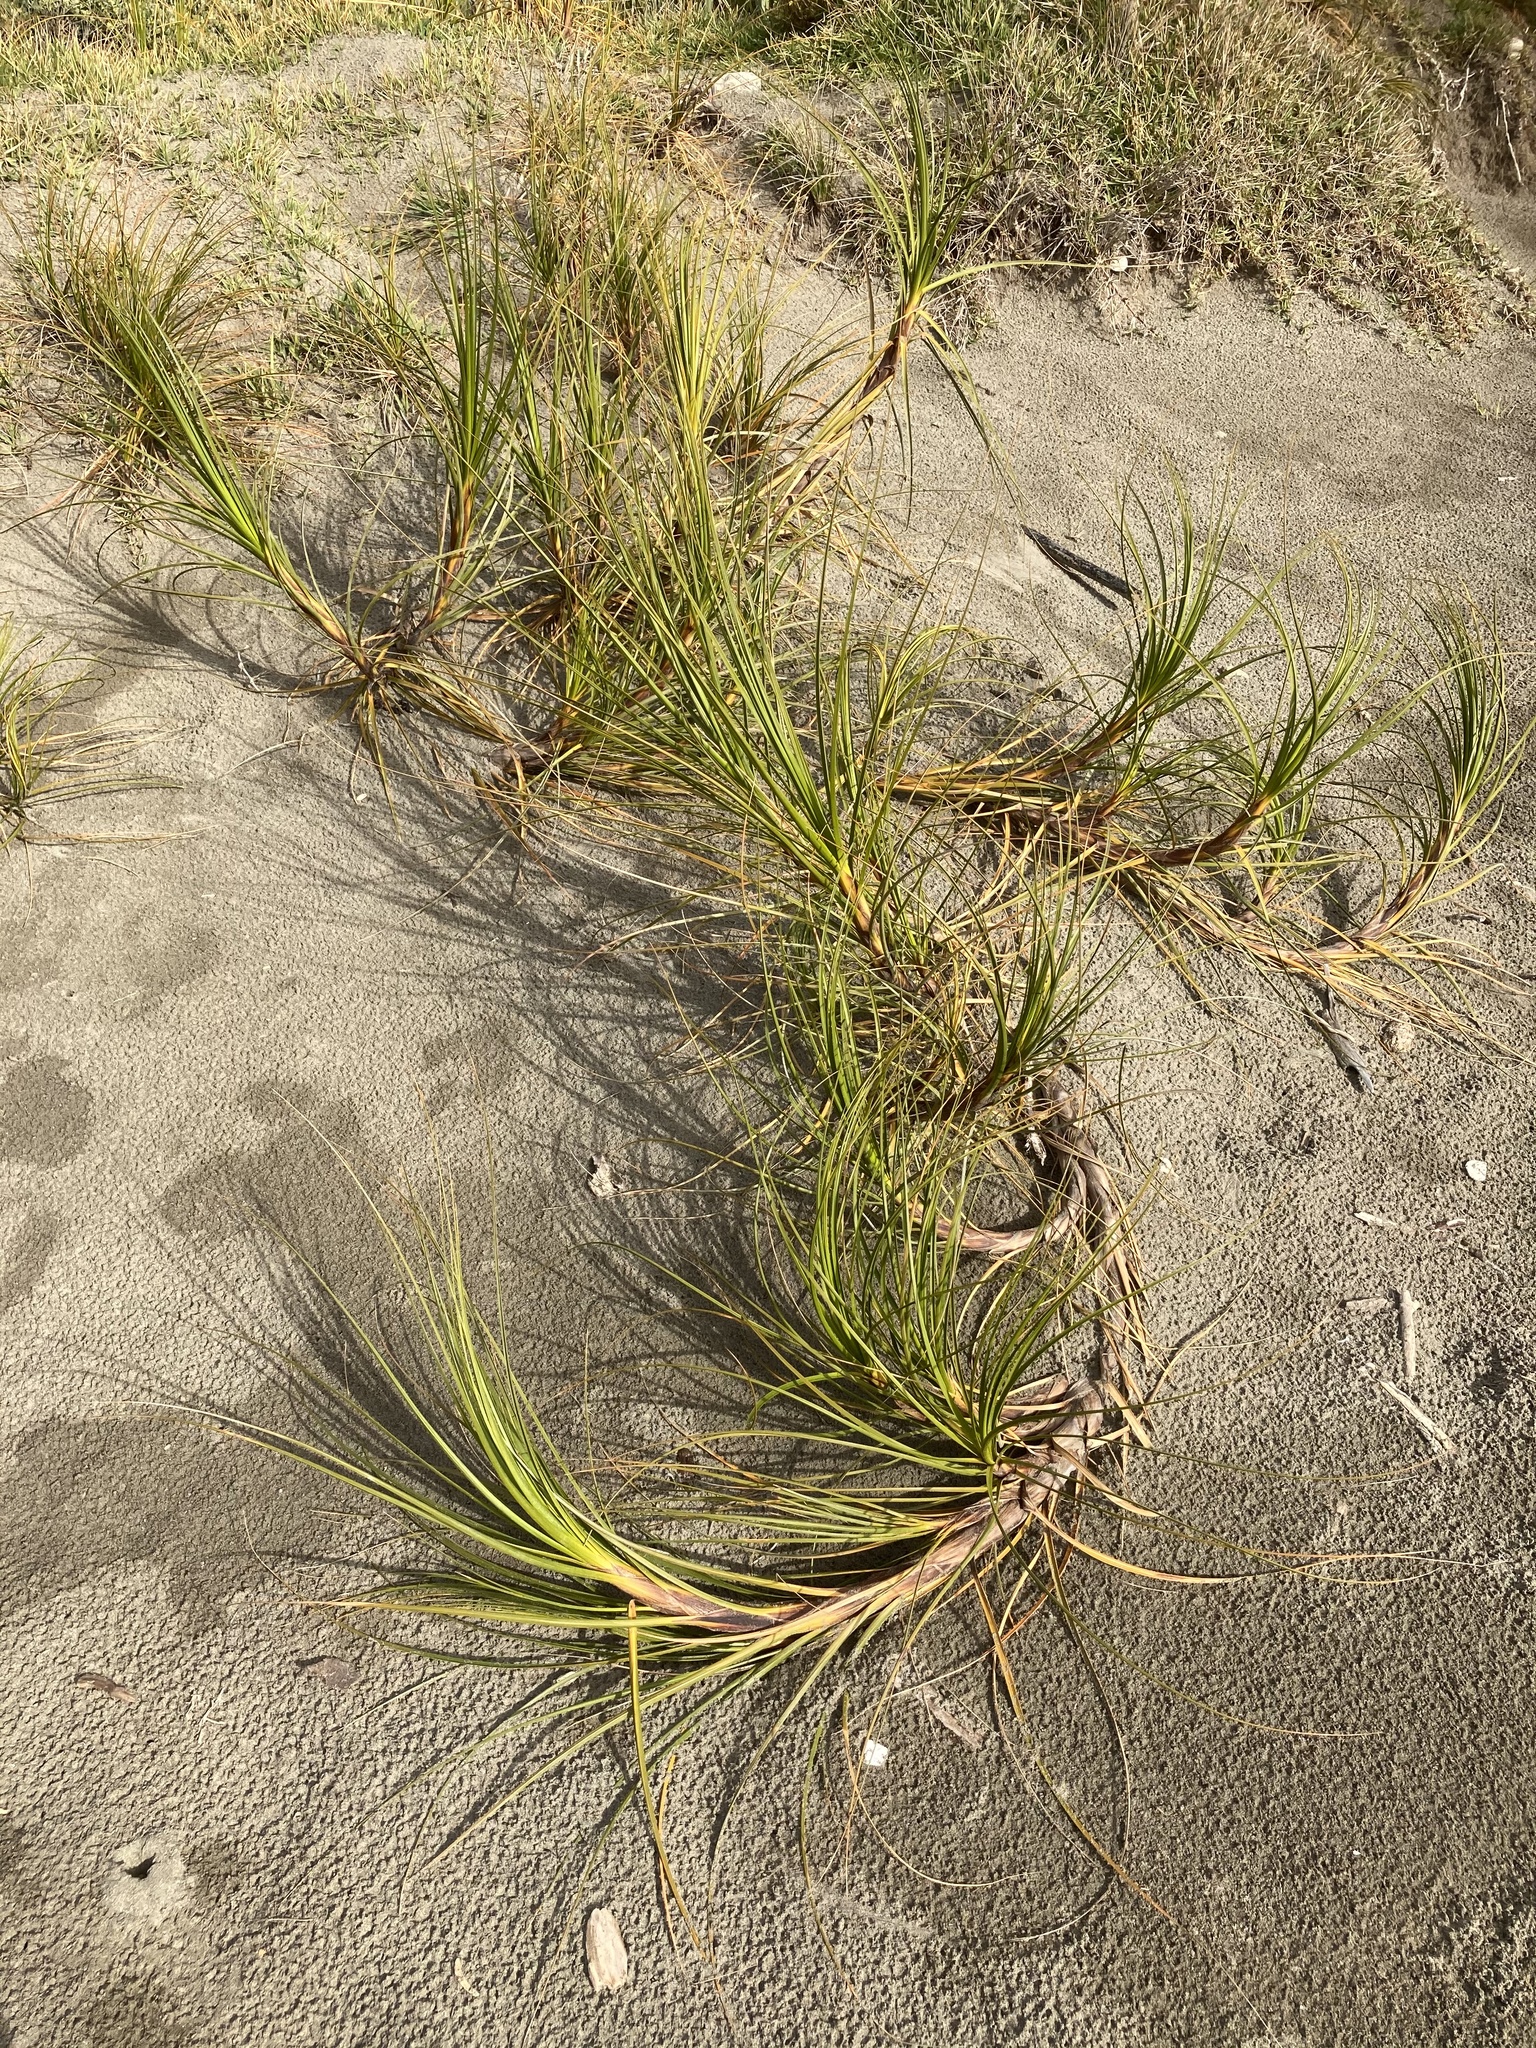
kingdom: Plantae
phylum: Tracheophyta
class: Liliopsida
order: Poales
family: Cyperaceae
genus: Ficinia
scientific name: Ficinia spiralis
